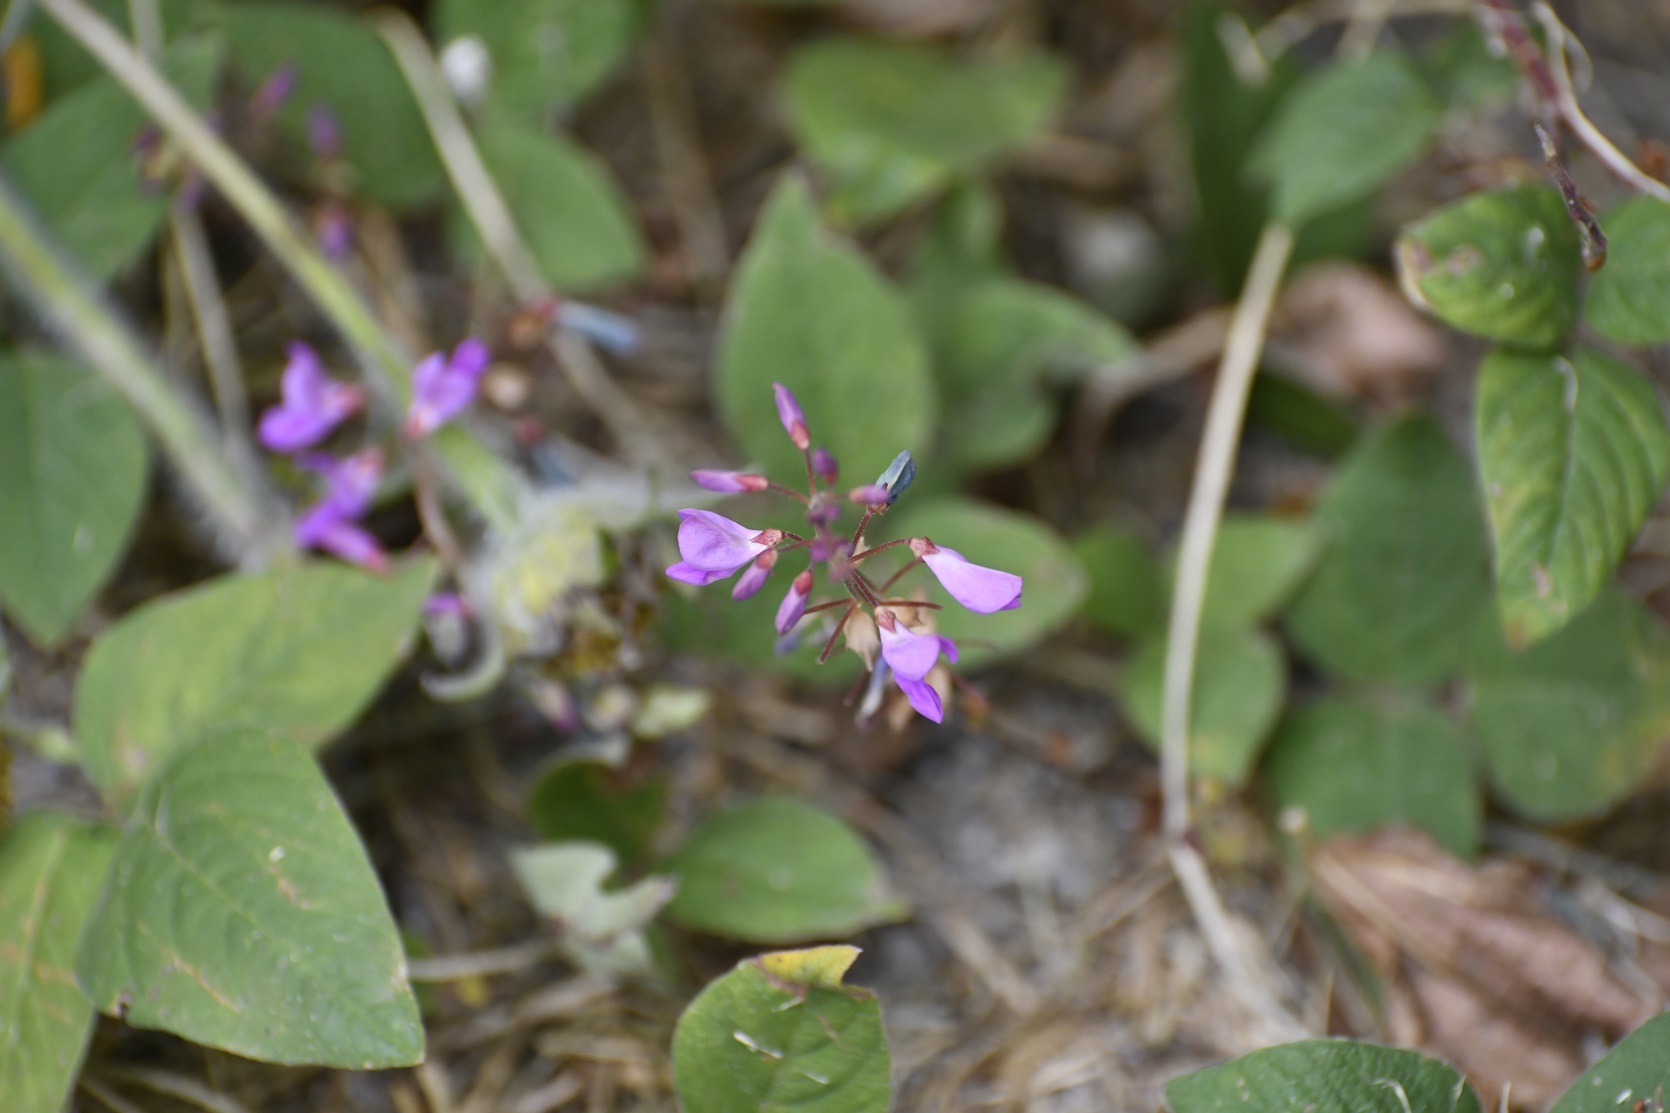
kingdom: Plantae
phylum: Tracheophyta
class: Magnoliopsida
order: Fabales
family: Fabaceae
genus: Desmodium
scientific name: Desmodium pringlei
